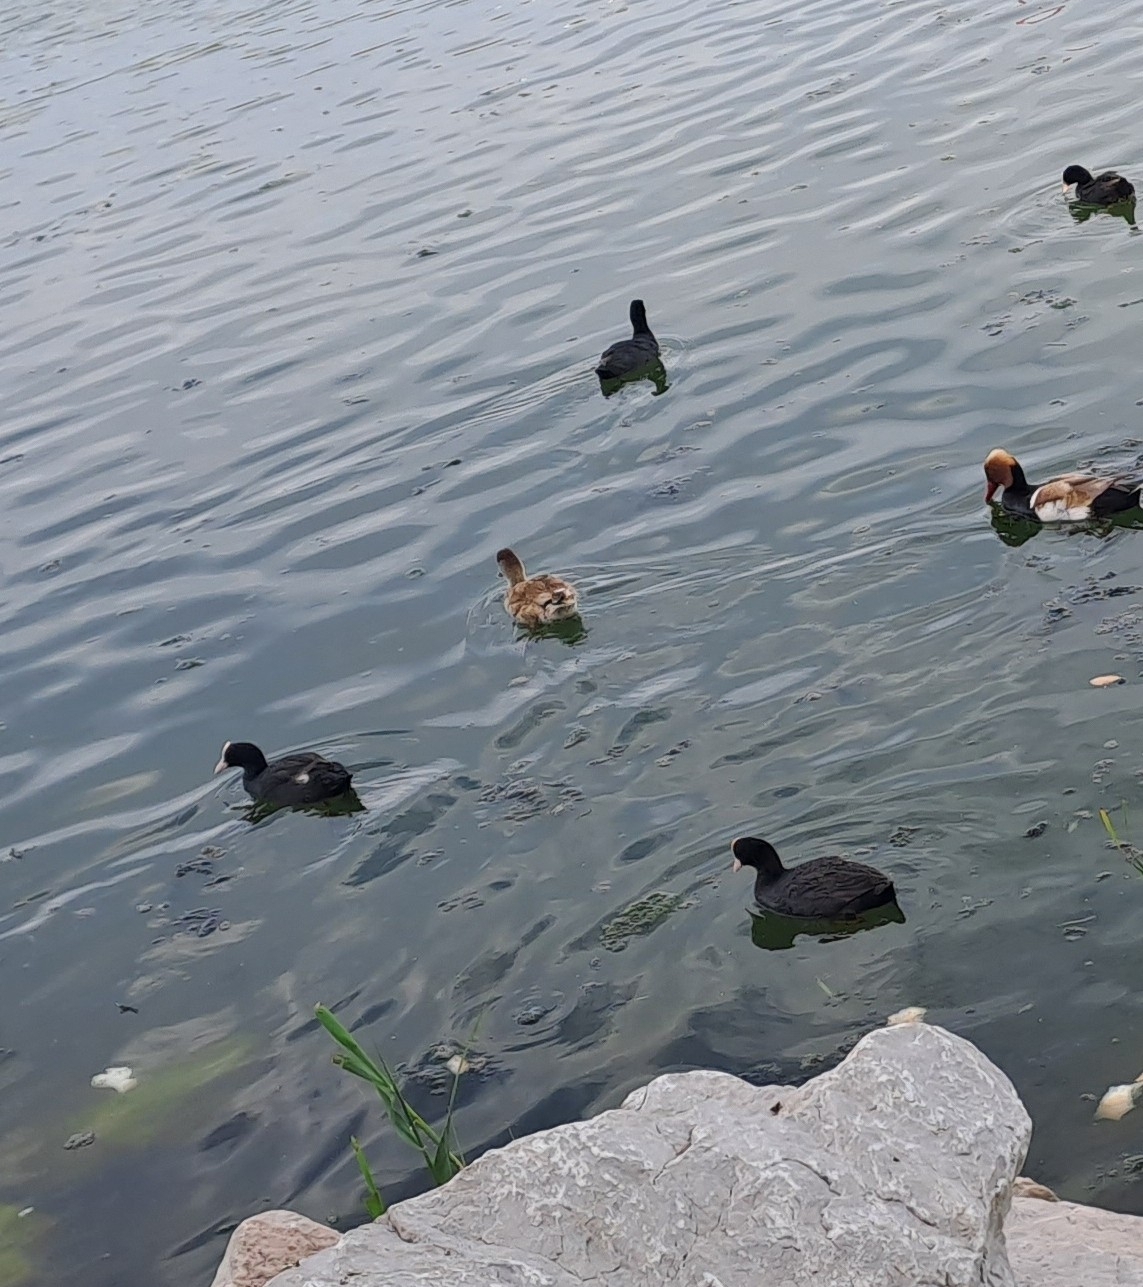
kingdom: Animalia
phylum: Chordata
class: Aves
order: Anseriformes
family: Anatidae
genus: Netta
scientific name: Netta rufina
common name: Red-crested pochard
